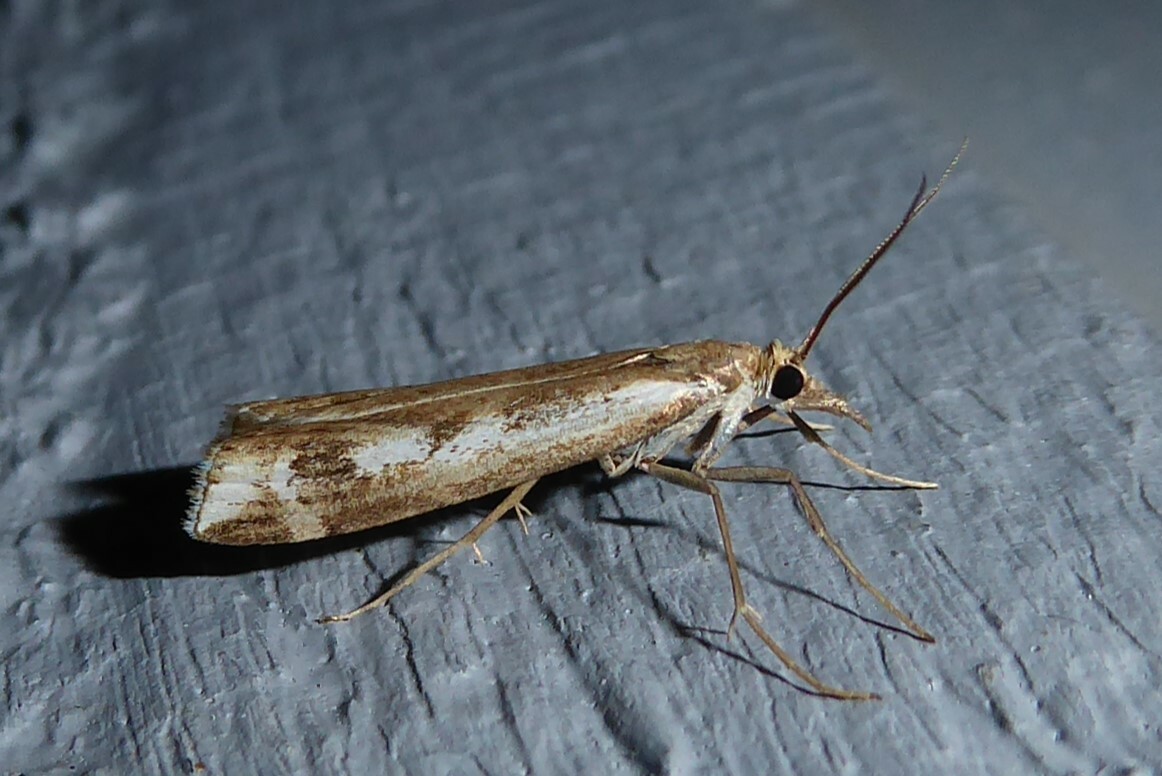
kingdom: Animalia
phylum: Arthropoda
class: Insecta
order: Lepidoptera
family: Crambidae
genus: Orocrambus
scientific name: Orocrambus vulgaris
